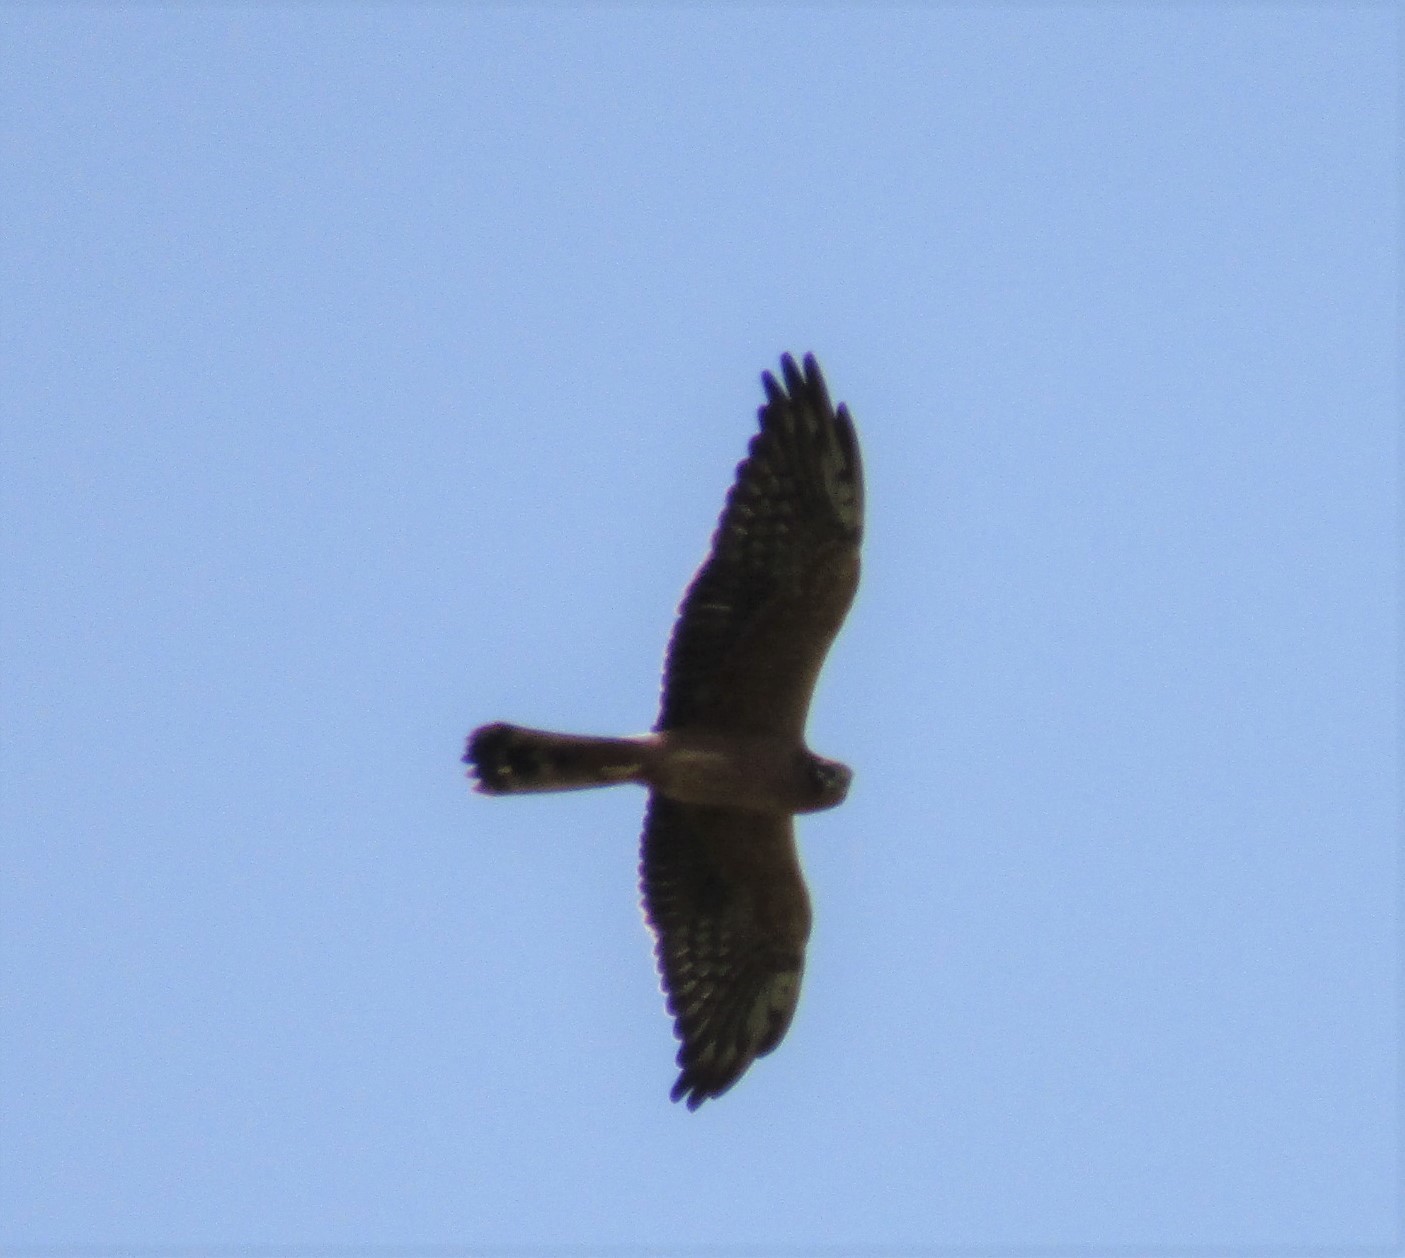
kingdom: Animalia
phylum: Chordata
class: Aves
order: Accipitriformes
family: Accipitridae
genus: Circus
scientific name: Circus pygargus
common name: Montagu's harrier
